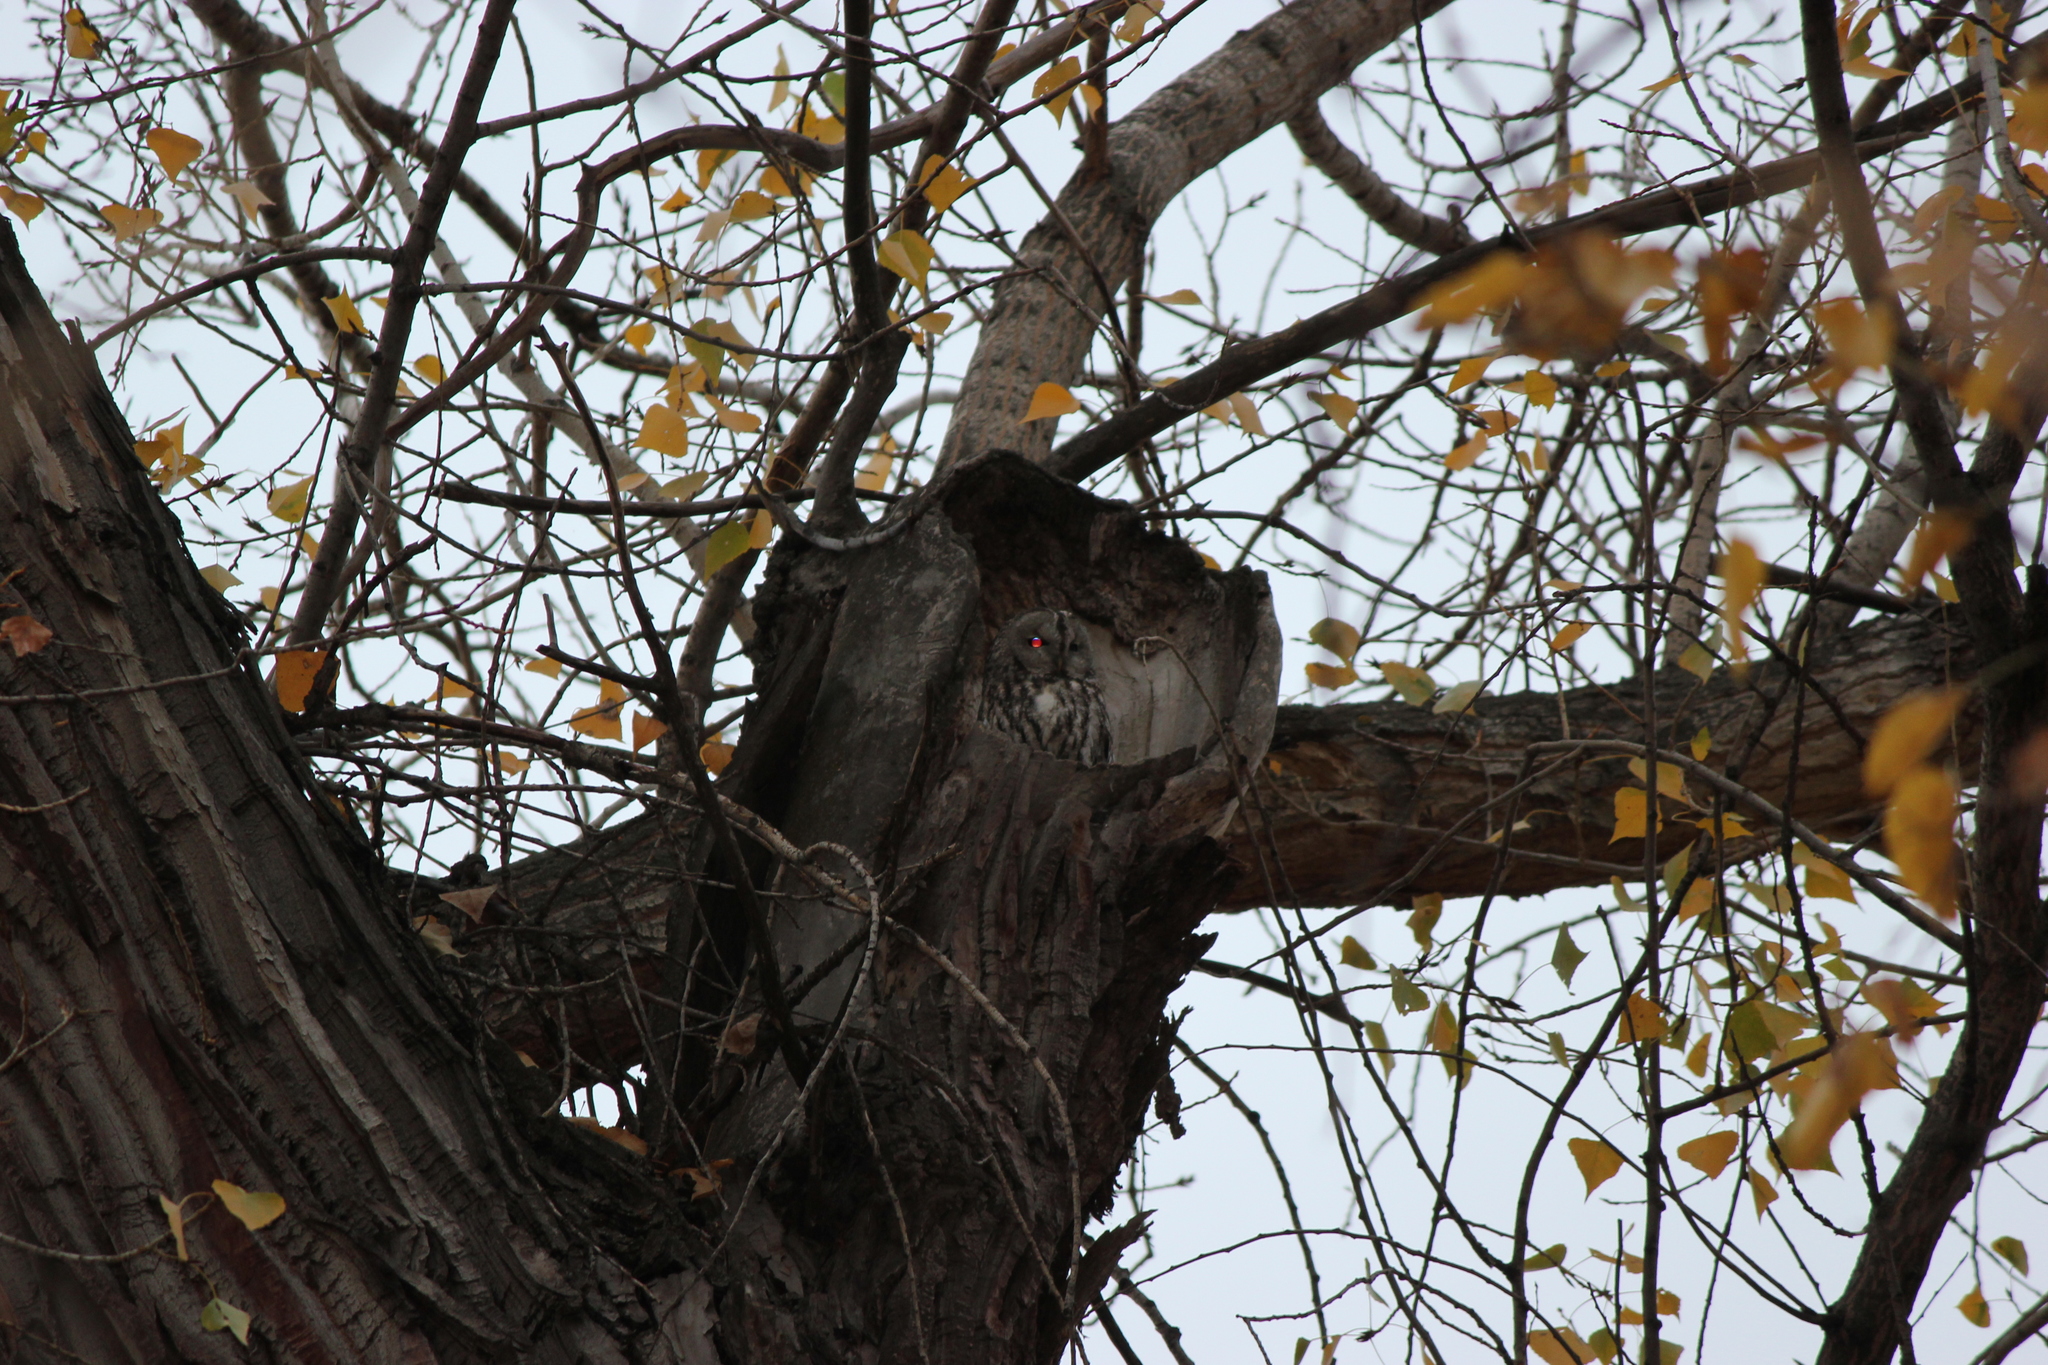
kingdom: Animalia
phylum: Chordata
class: Aves
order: Strigiformes
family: Strigidae
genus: Strix
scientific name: Strix aluco
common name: Tawny owl
